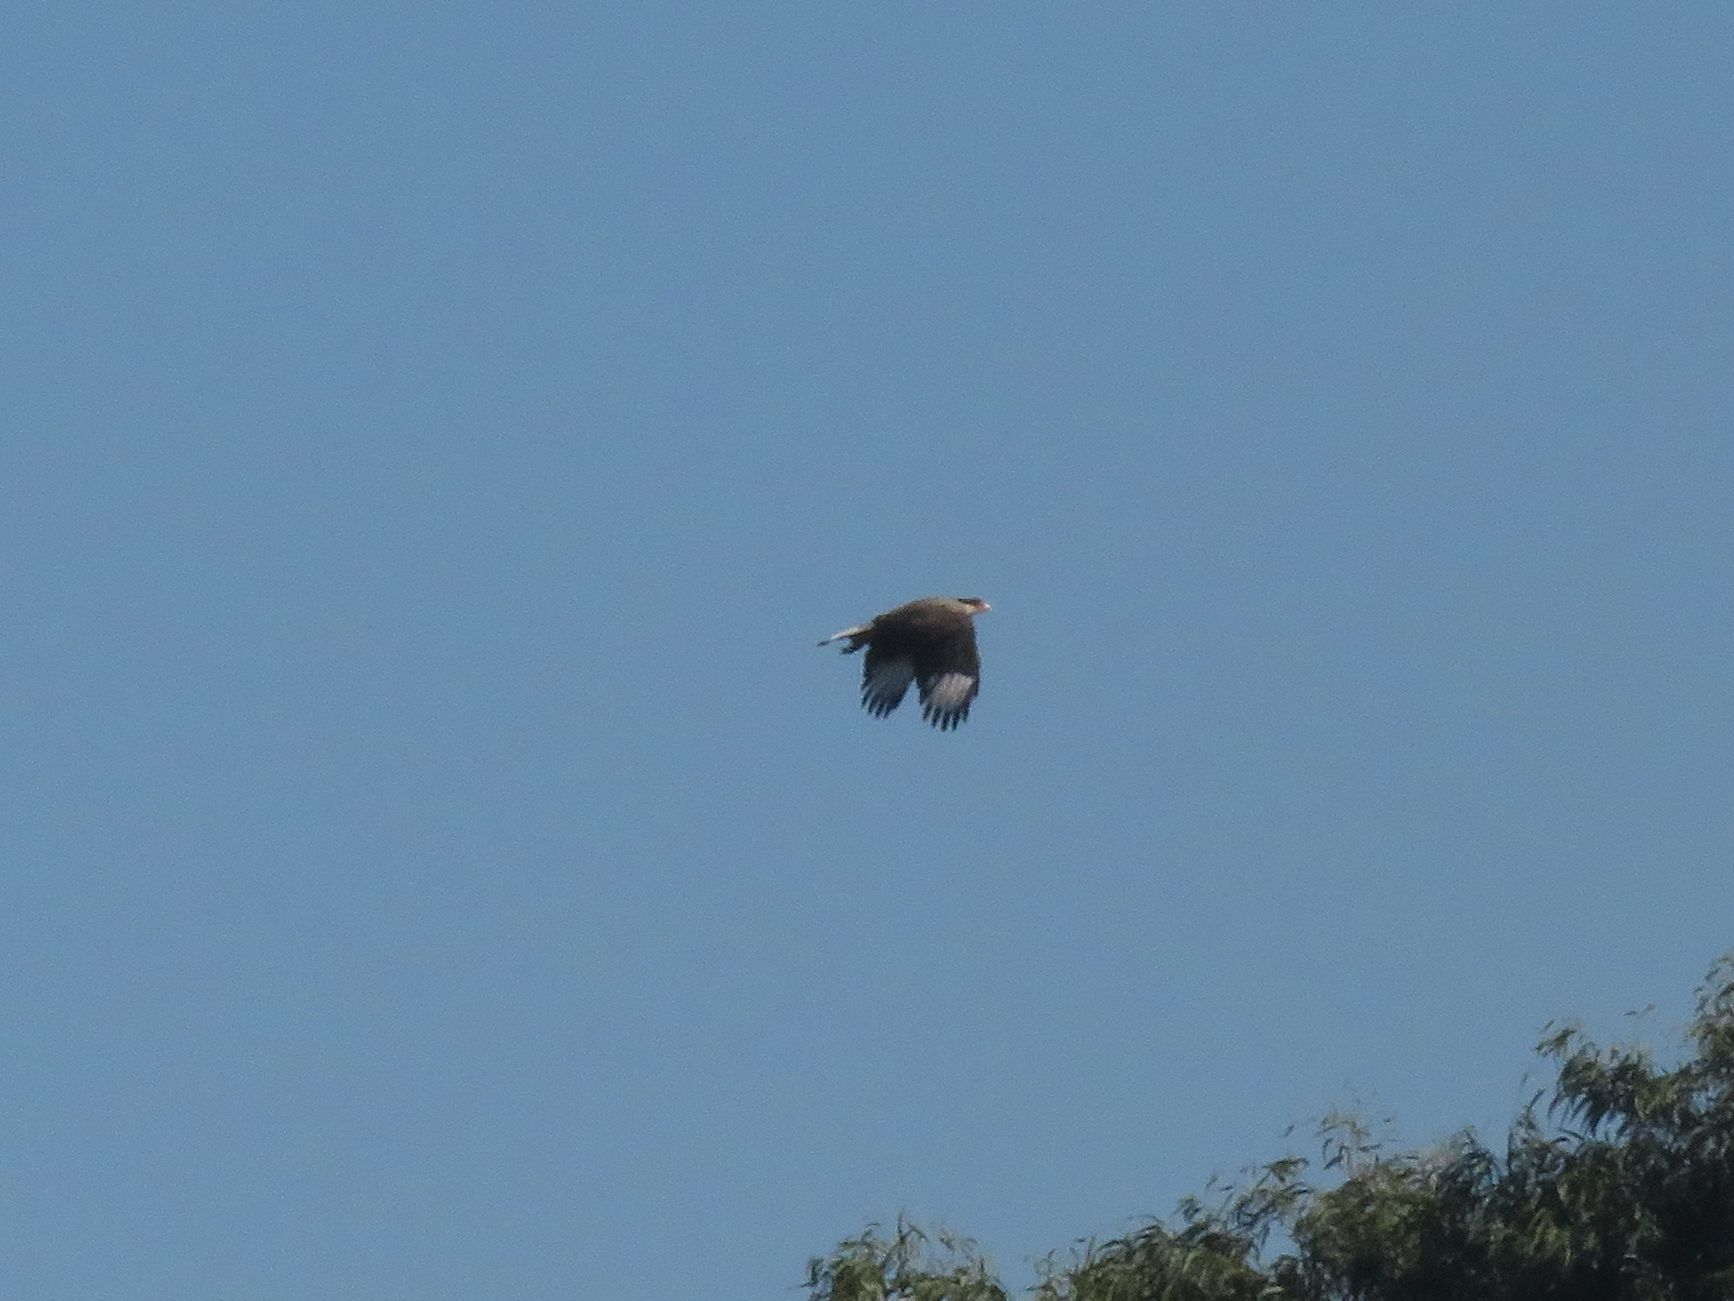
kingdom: Animalia
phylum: Chordata
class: Aves
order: Falconiformes
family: Falconidae
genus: Caracara
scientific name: Caracara plancus
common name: Southern caracara
